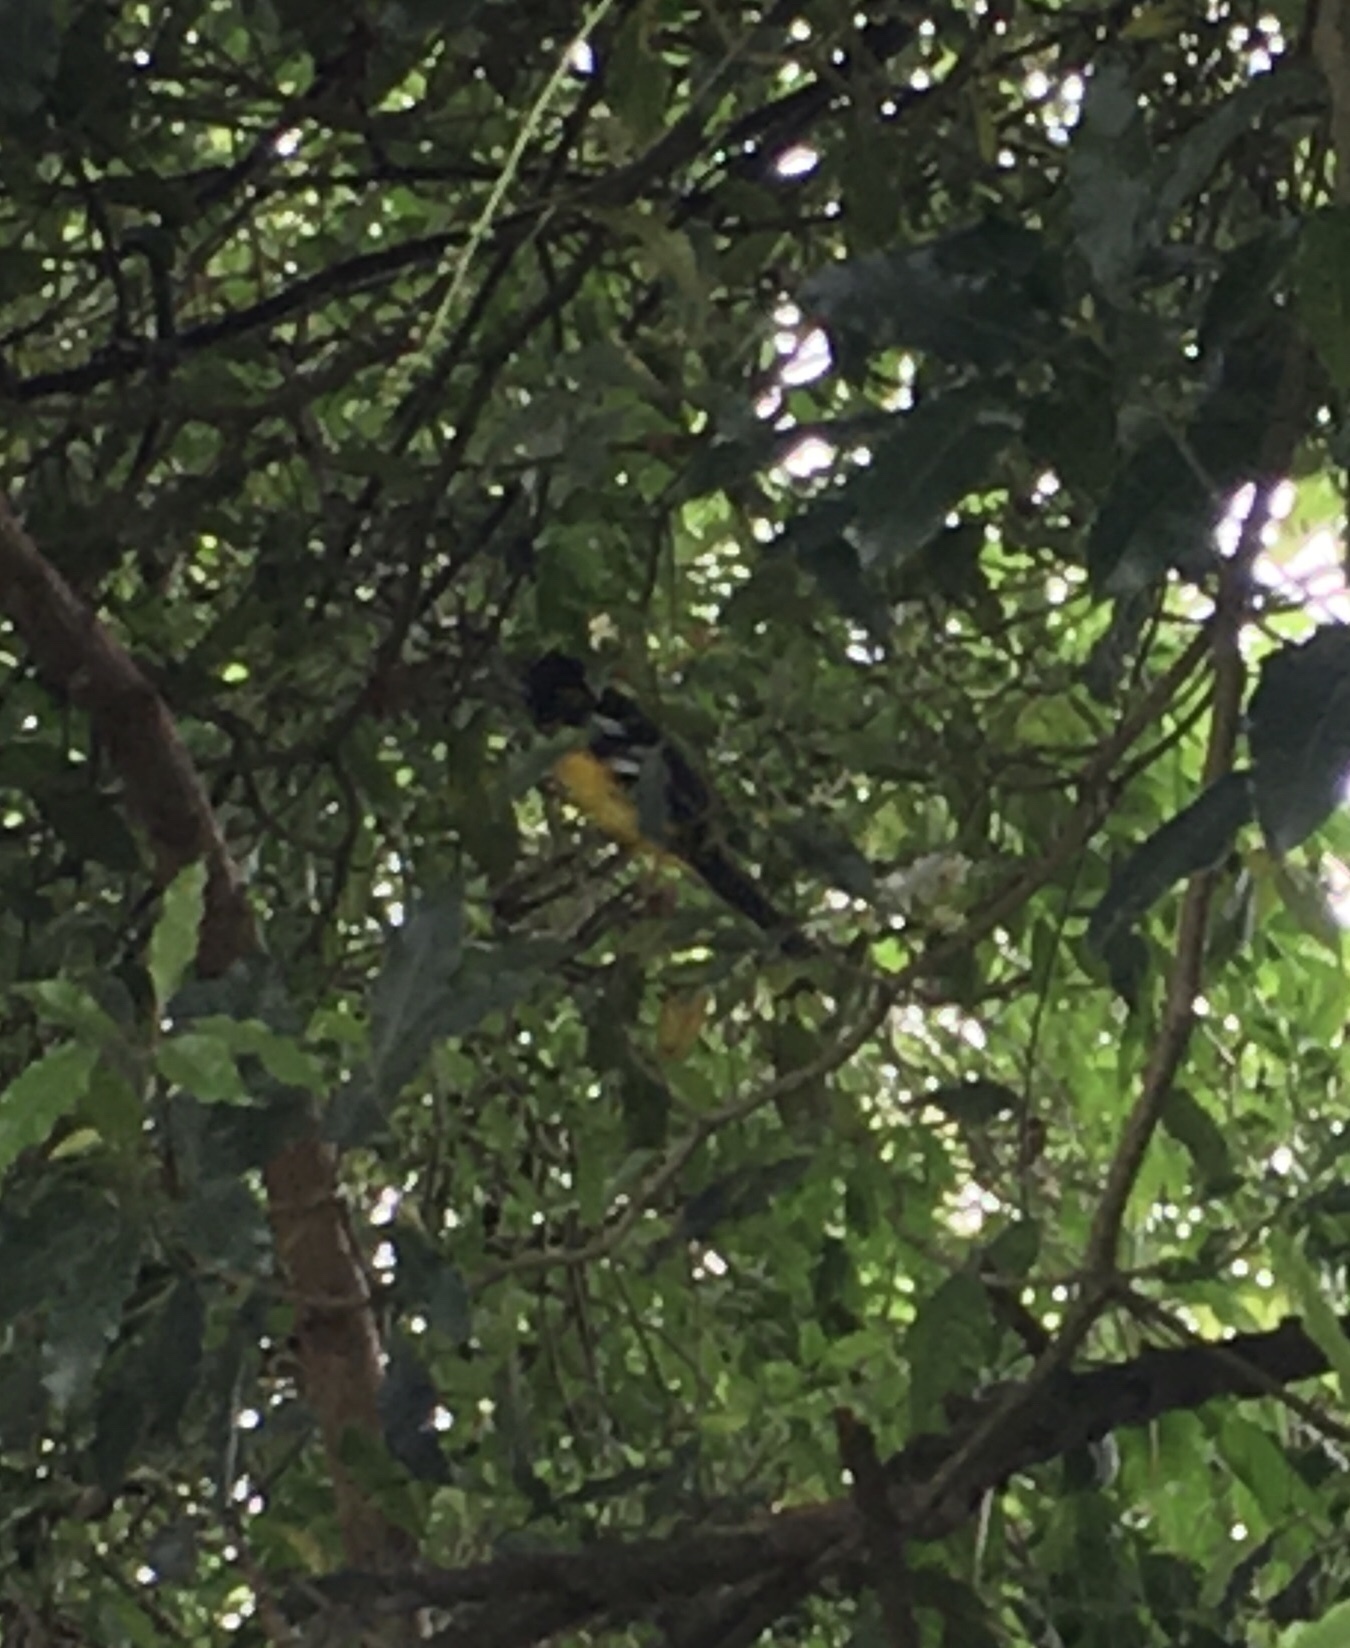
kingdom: Animalia
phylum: Chordata
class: Aves
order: Passeriformes
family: Cardinalidae
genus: Pheucticus
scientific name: Pheucticus aureoventris
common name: Black-backed grosbeak
